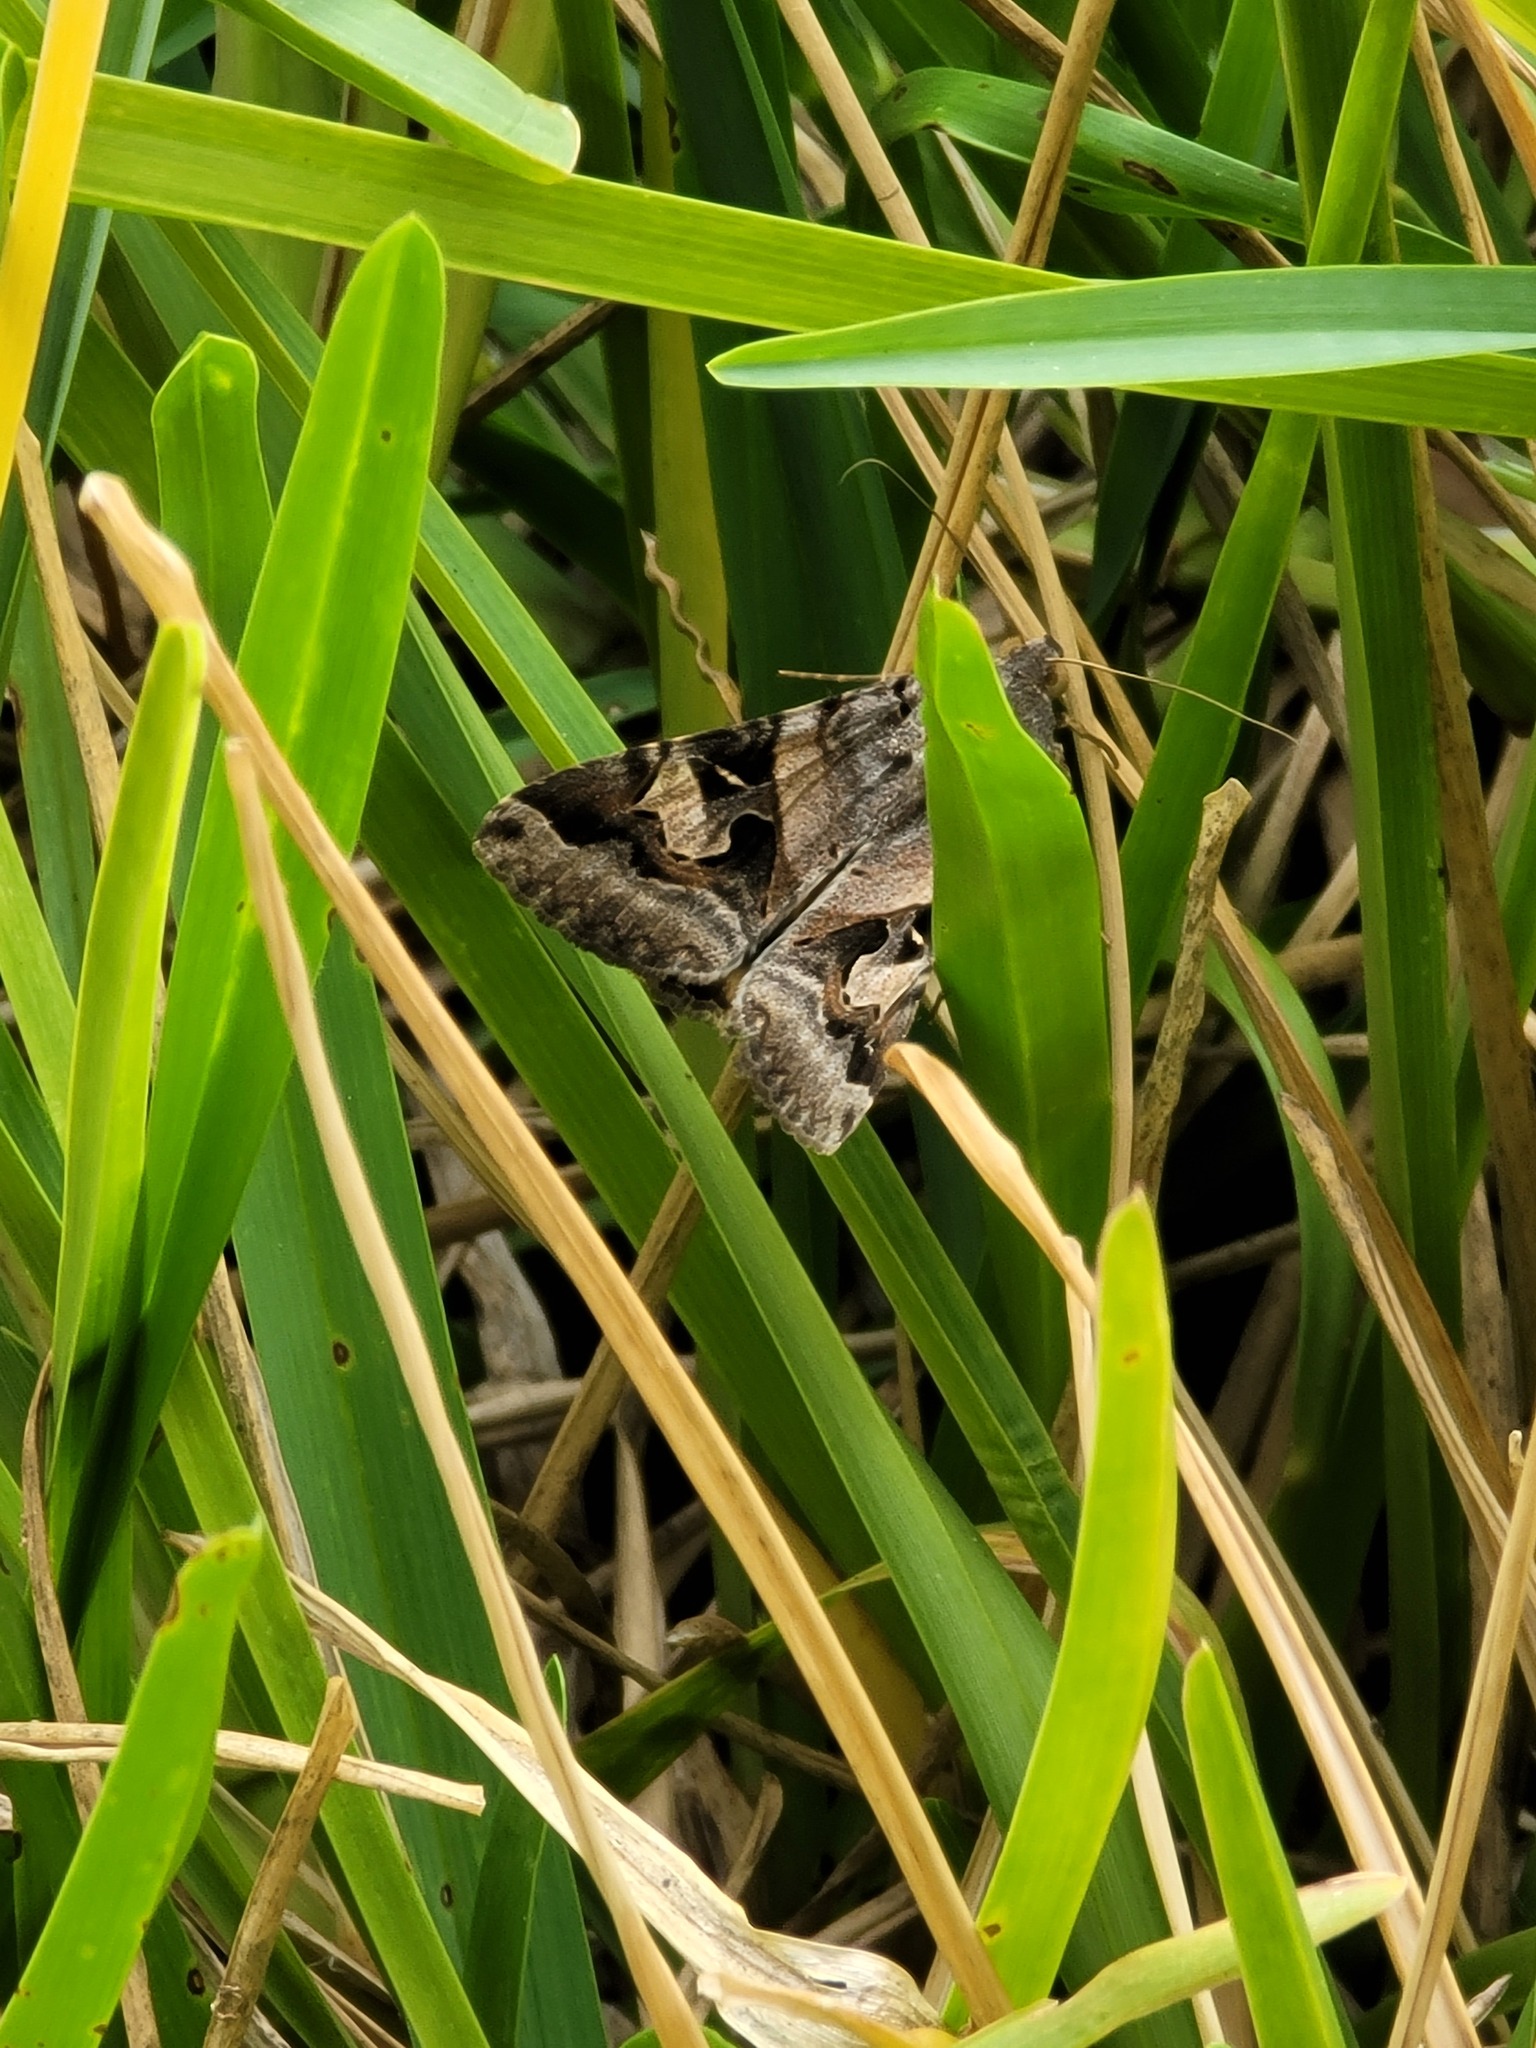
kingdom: Animalia
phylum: Arthropoda
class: Insecta
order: Lepidoptera
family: Erebidae
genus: Melipotis
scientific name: Melipotis indomita
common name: Moth
